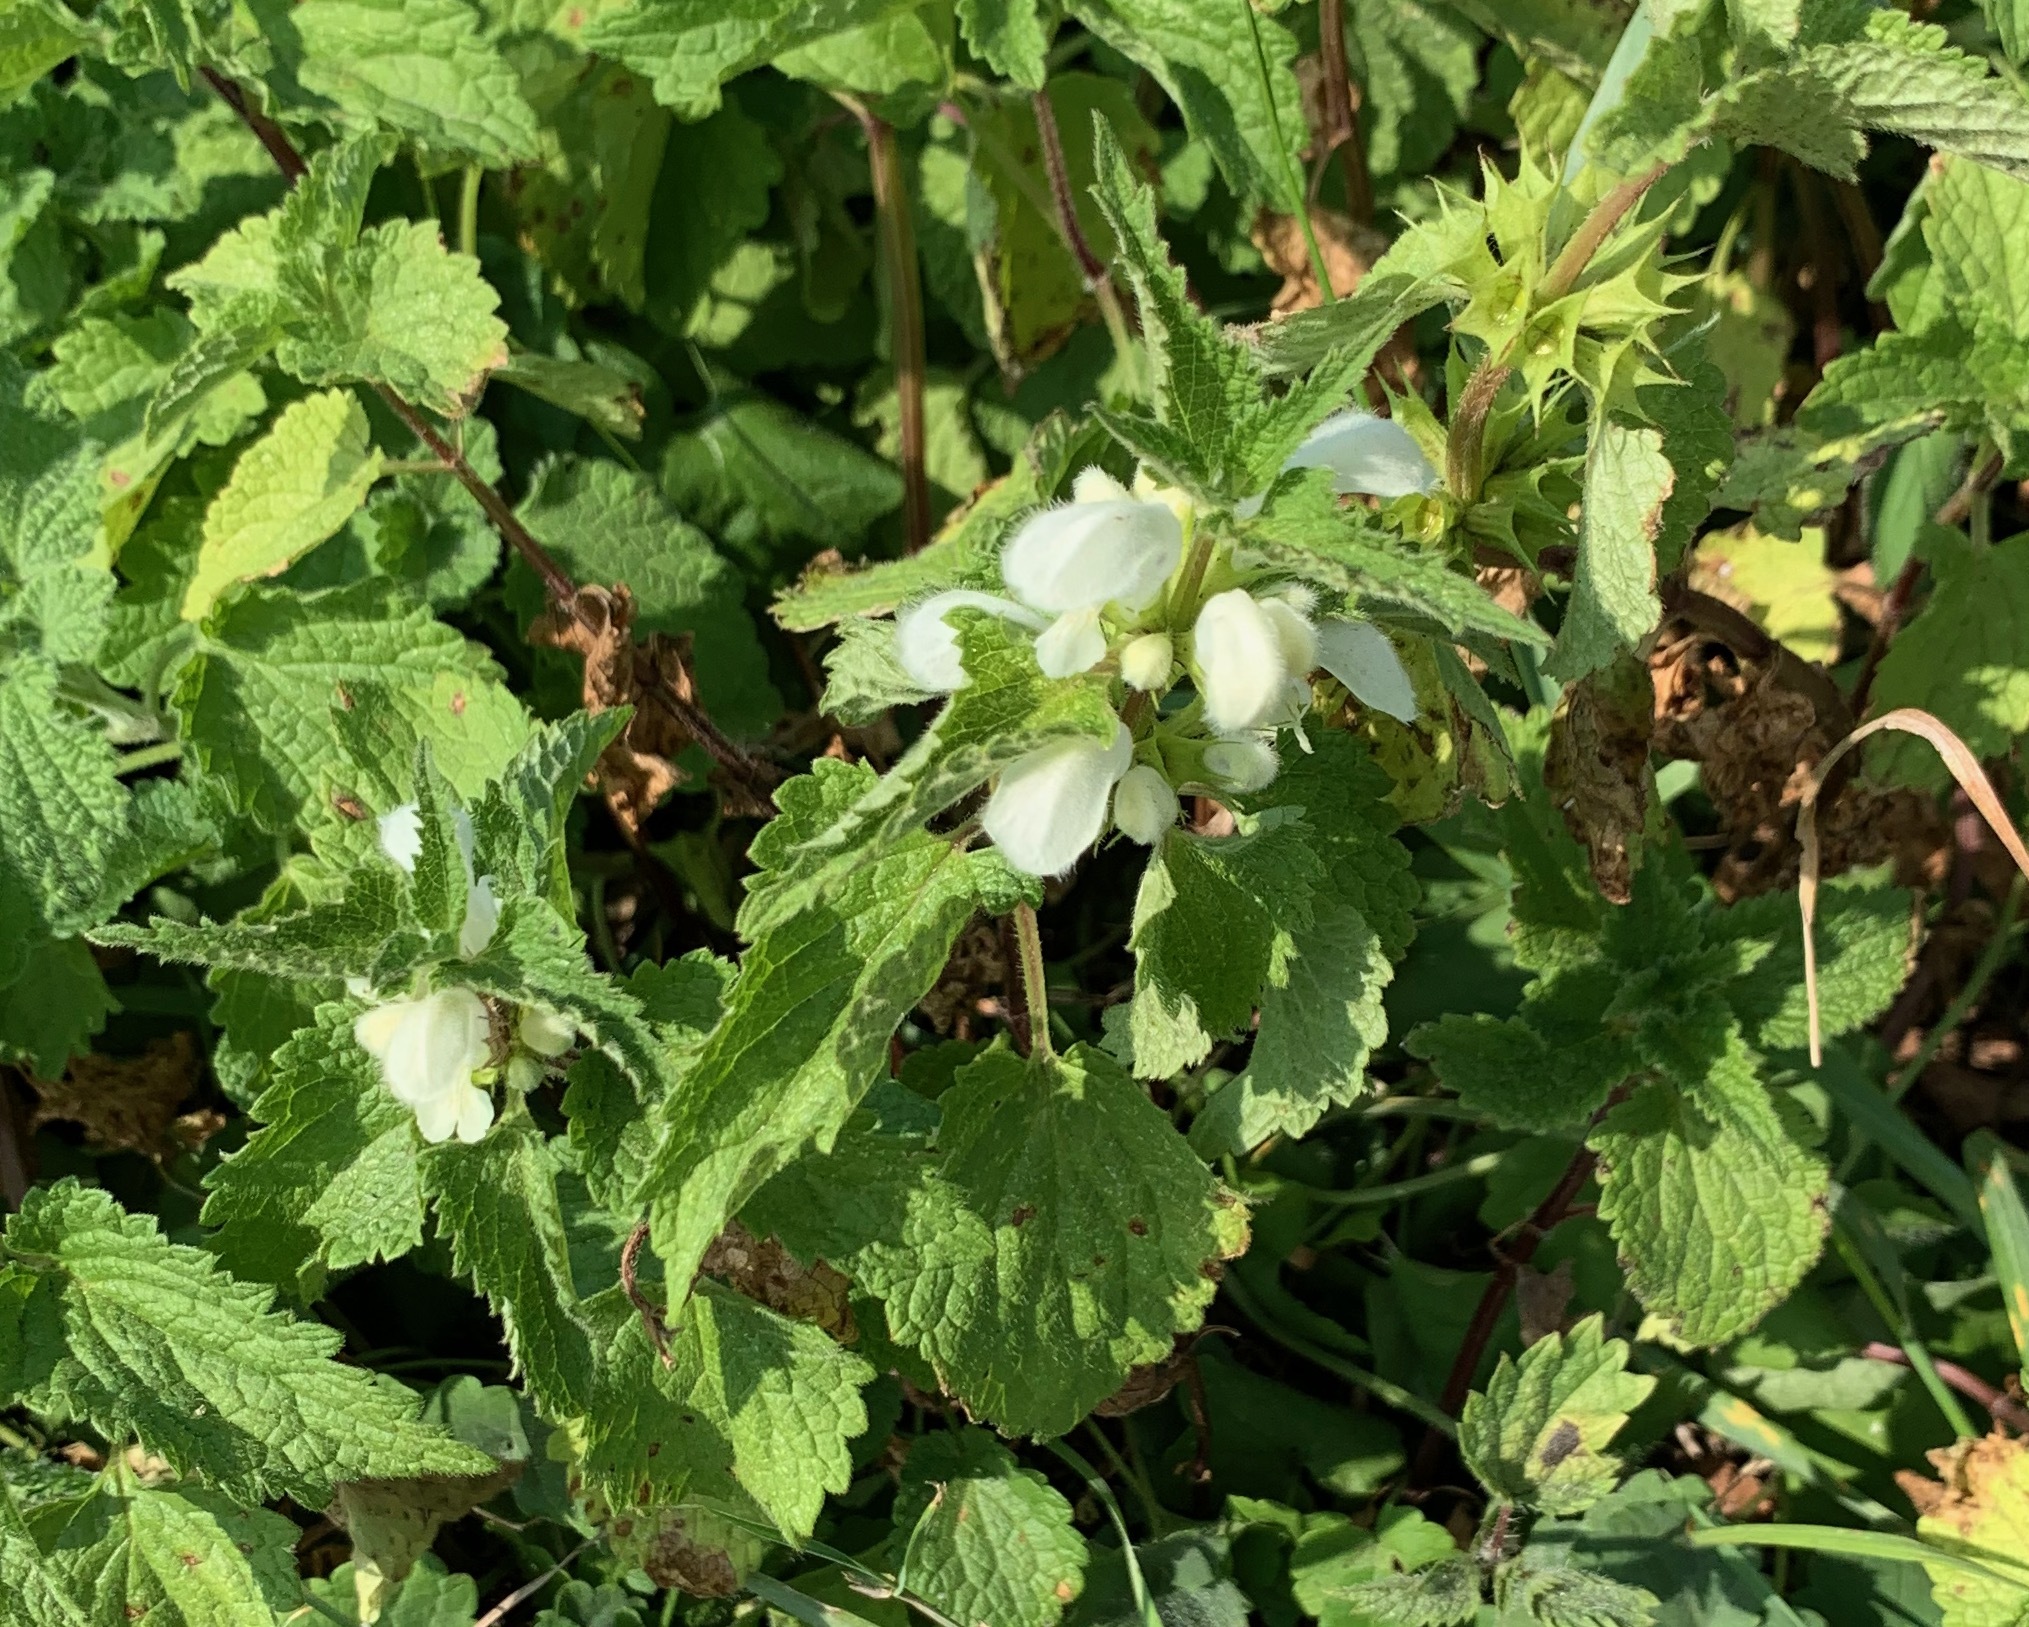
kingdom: Plantae
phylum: Tracheophyta
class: Magnoliopsida
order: Lamiales
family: Lamiaceae
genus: Lamium
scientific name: Lamium album
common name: White dead-nettle
